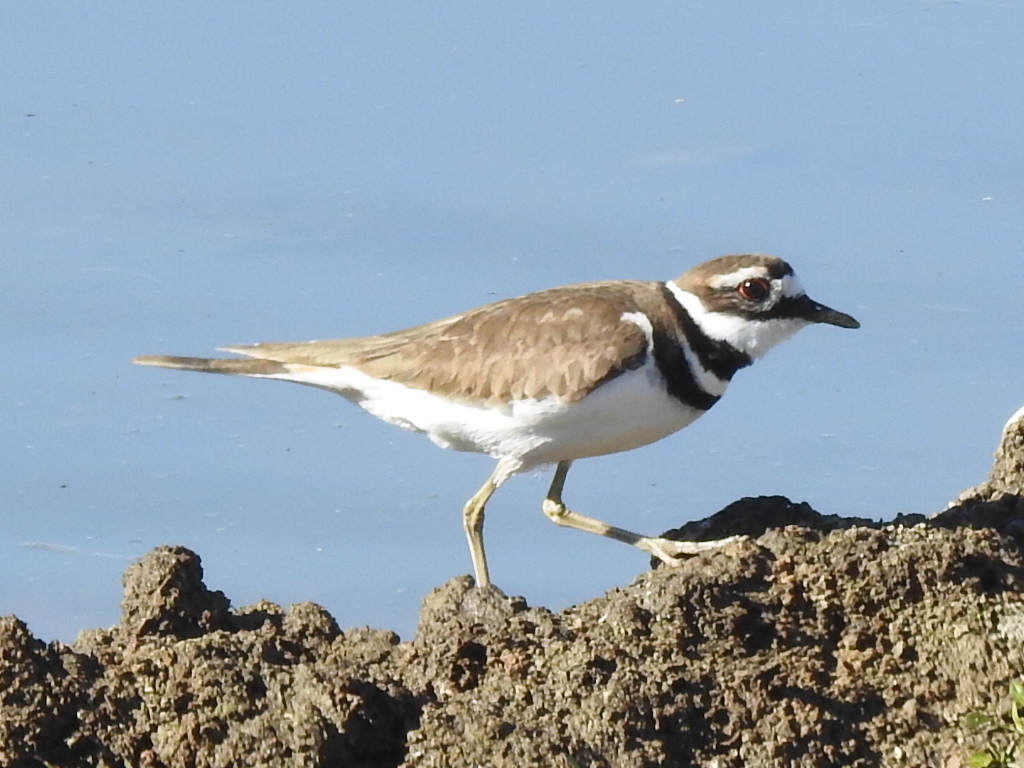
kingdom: Animalia
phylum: Chordata
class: Aves
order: Charadriiformes
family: Charadriidae
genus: Charadrius
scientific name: Charadrius vociferus
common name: Killdeer
